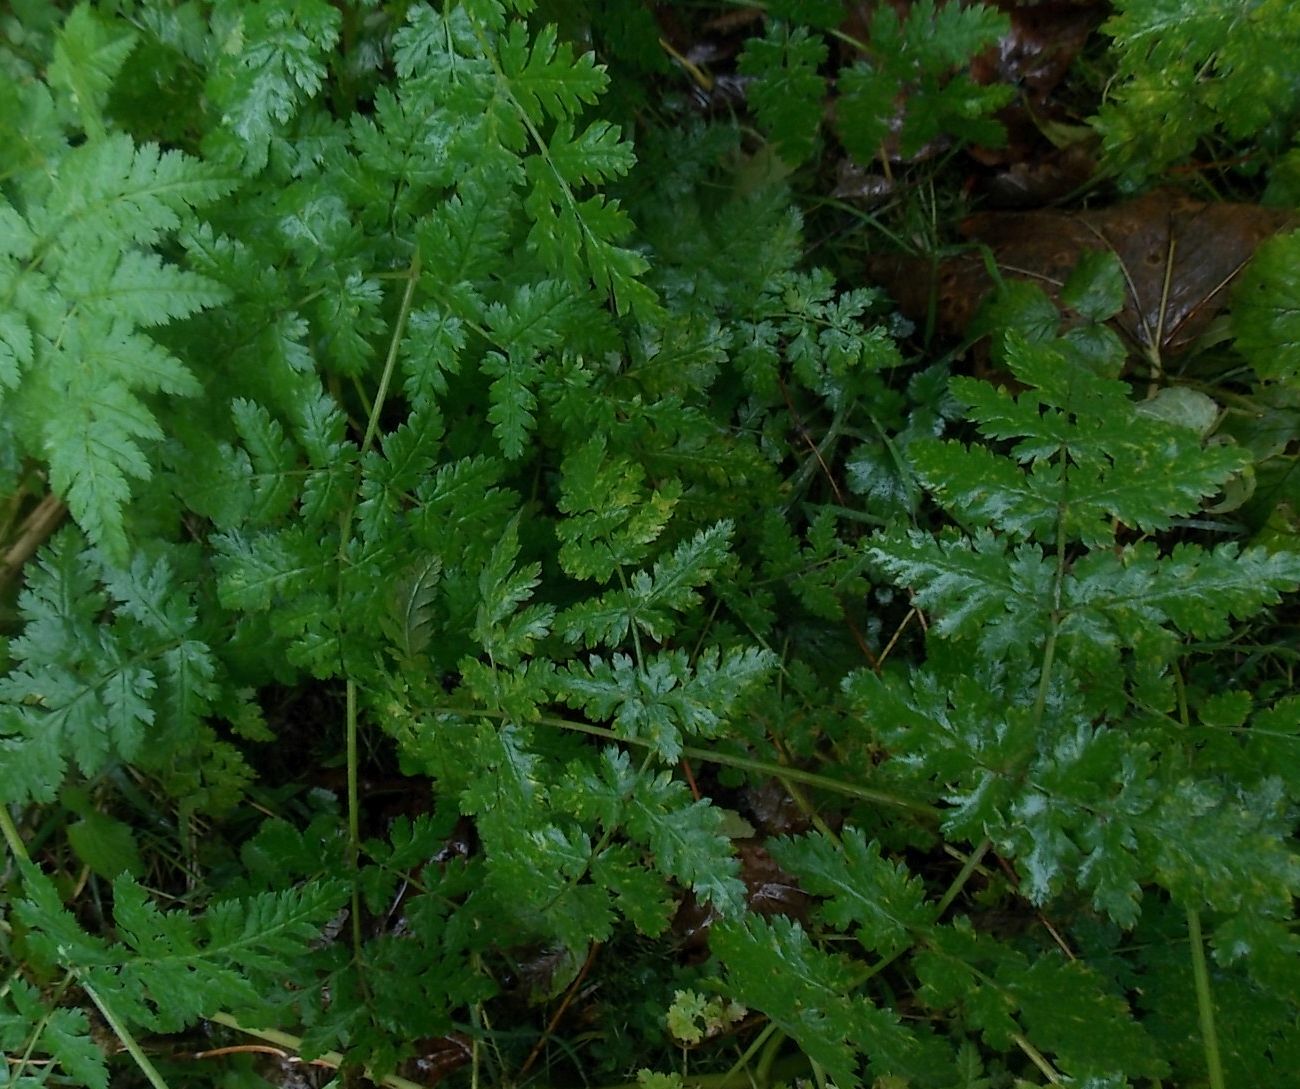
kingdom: Plantae
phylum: Tracheophyta
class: Magnoliopsida
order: Apiales
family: Apiaceae
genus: Myrrhis
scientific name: Myrrhis odorata
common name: Sweet cicely
